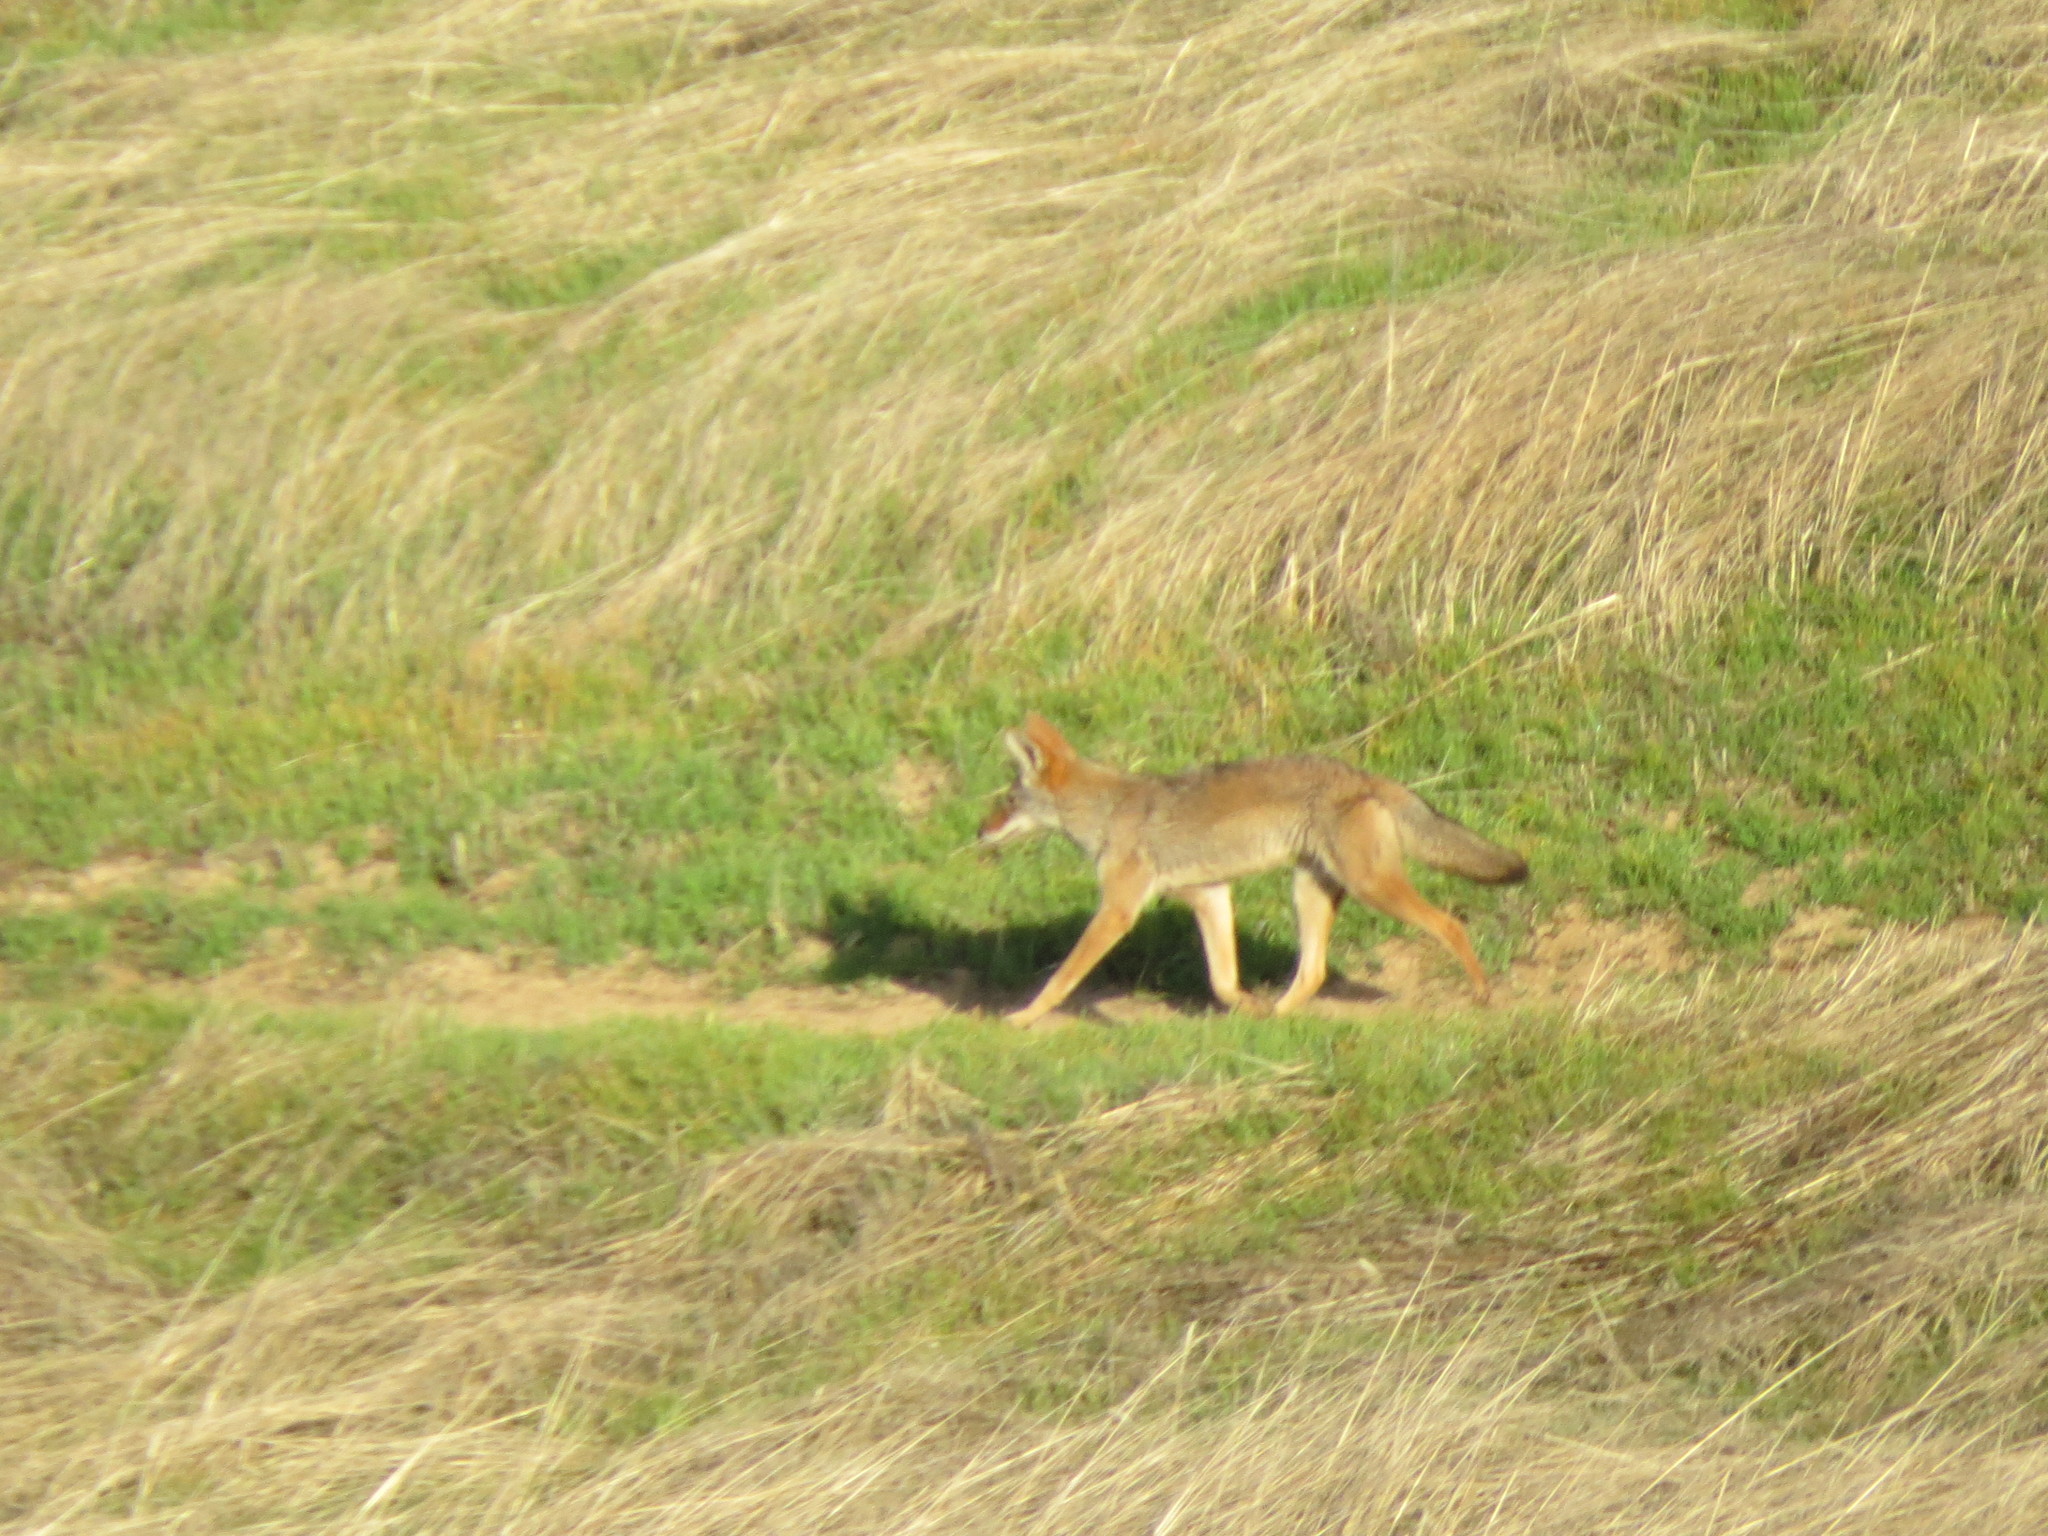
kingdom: Animalia
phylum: Chordata
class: Mammalia
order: Carnivora
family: Canidae
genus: Canis
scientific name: Canis latrans
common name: Coyote
